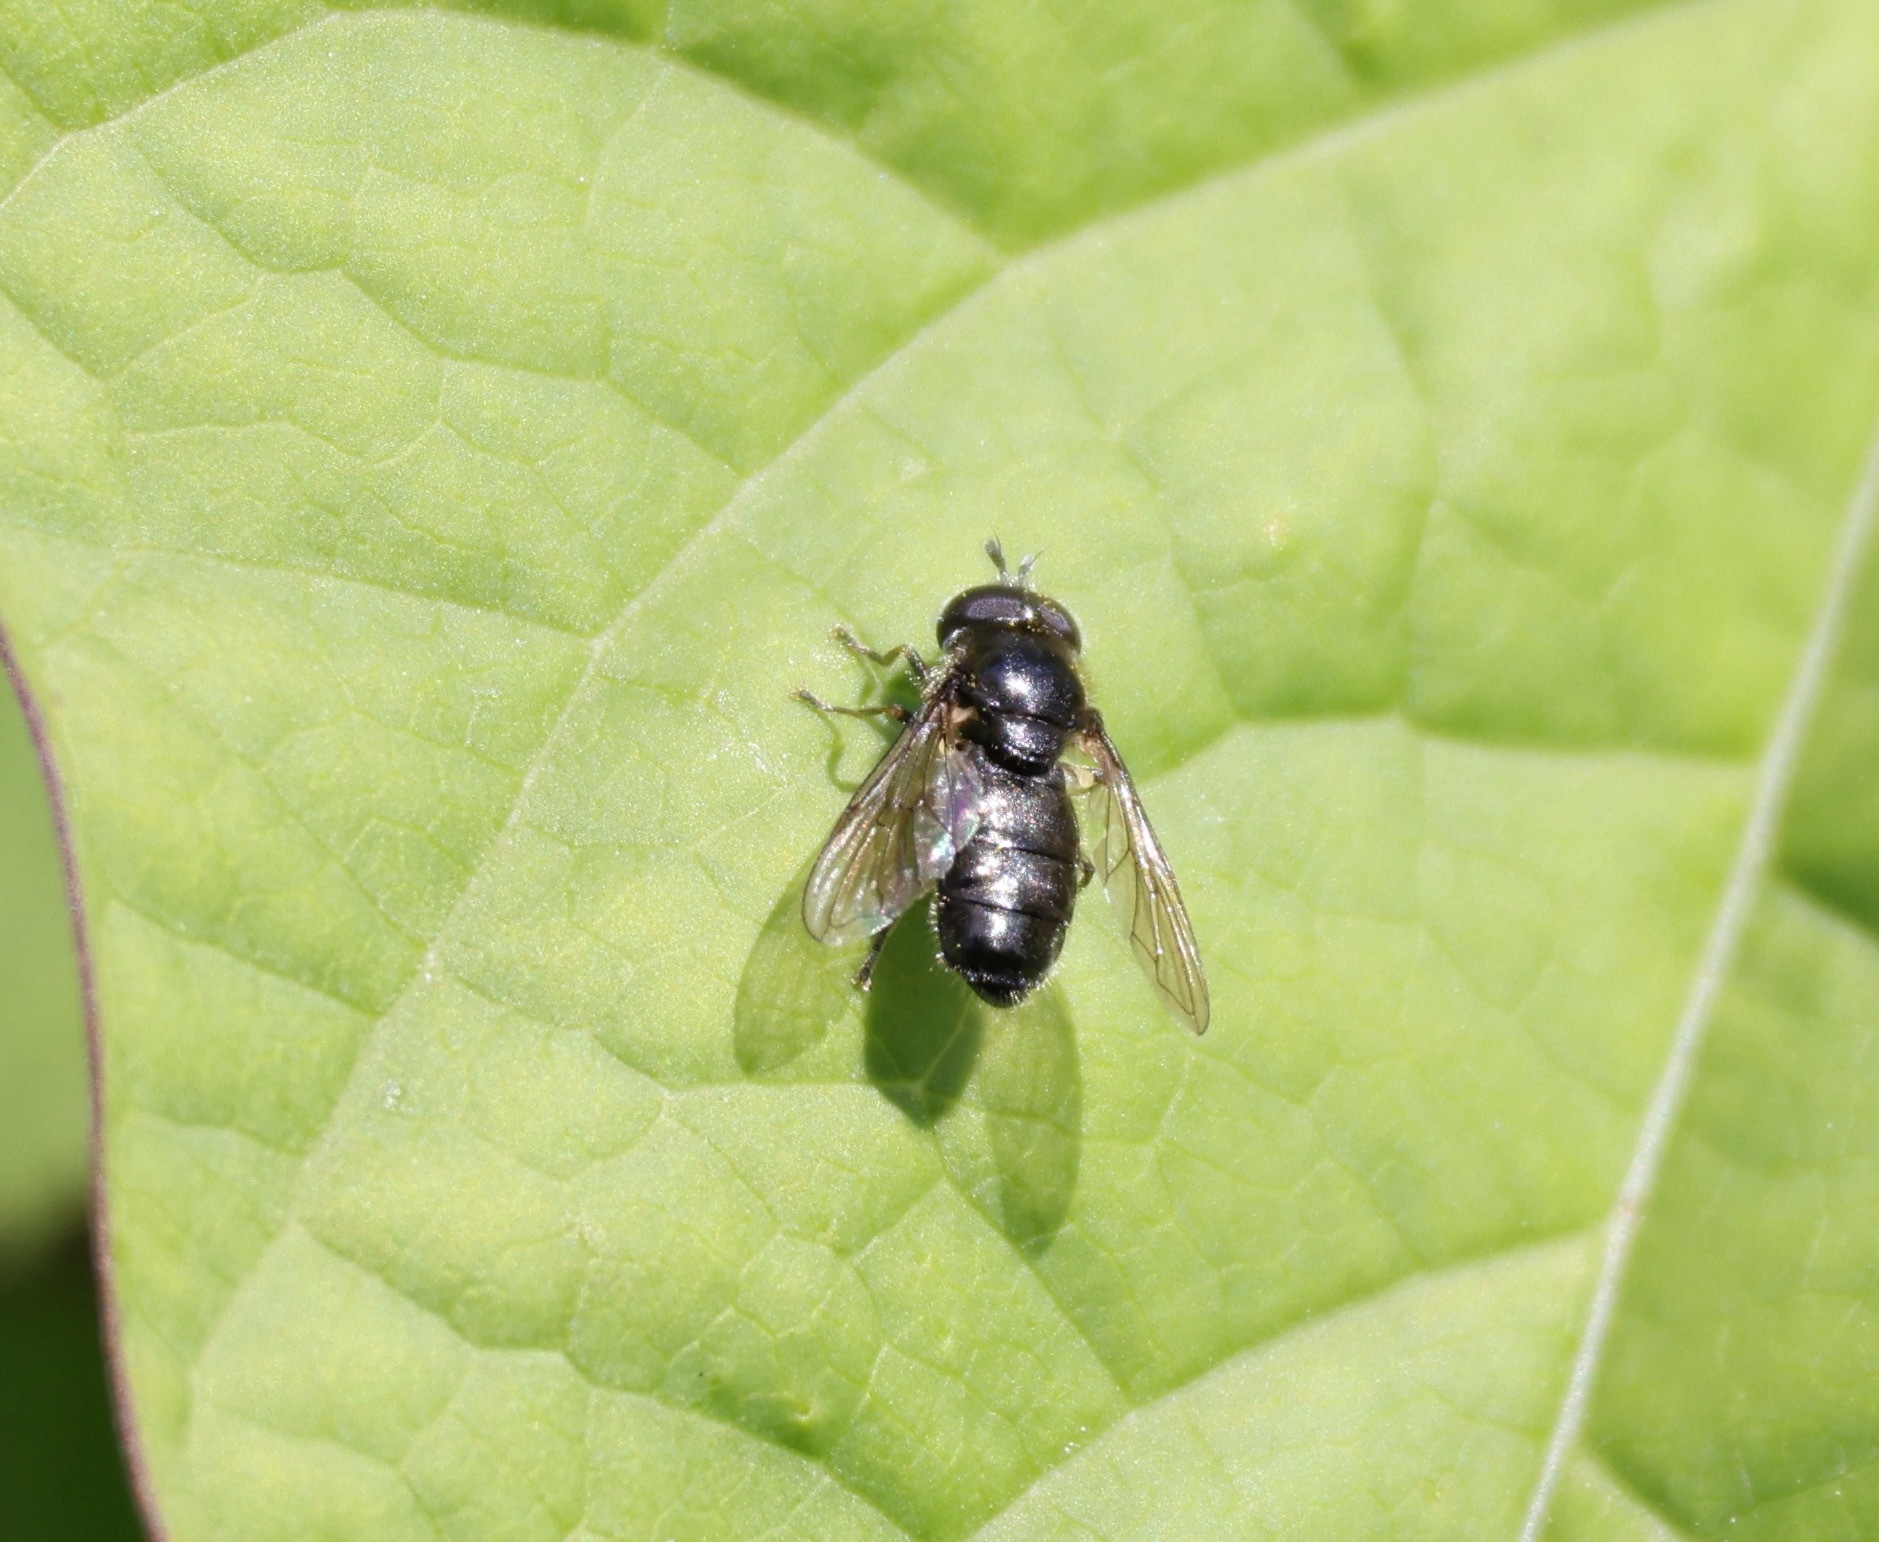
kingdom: Animalia
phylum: Arthropoda
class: Insecta
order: Diptera
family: Syrphidae
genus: Pipizella
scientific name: Pipizella
